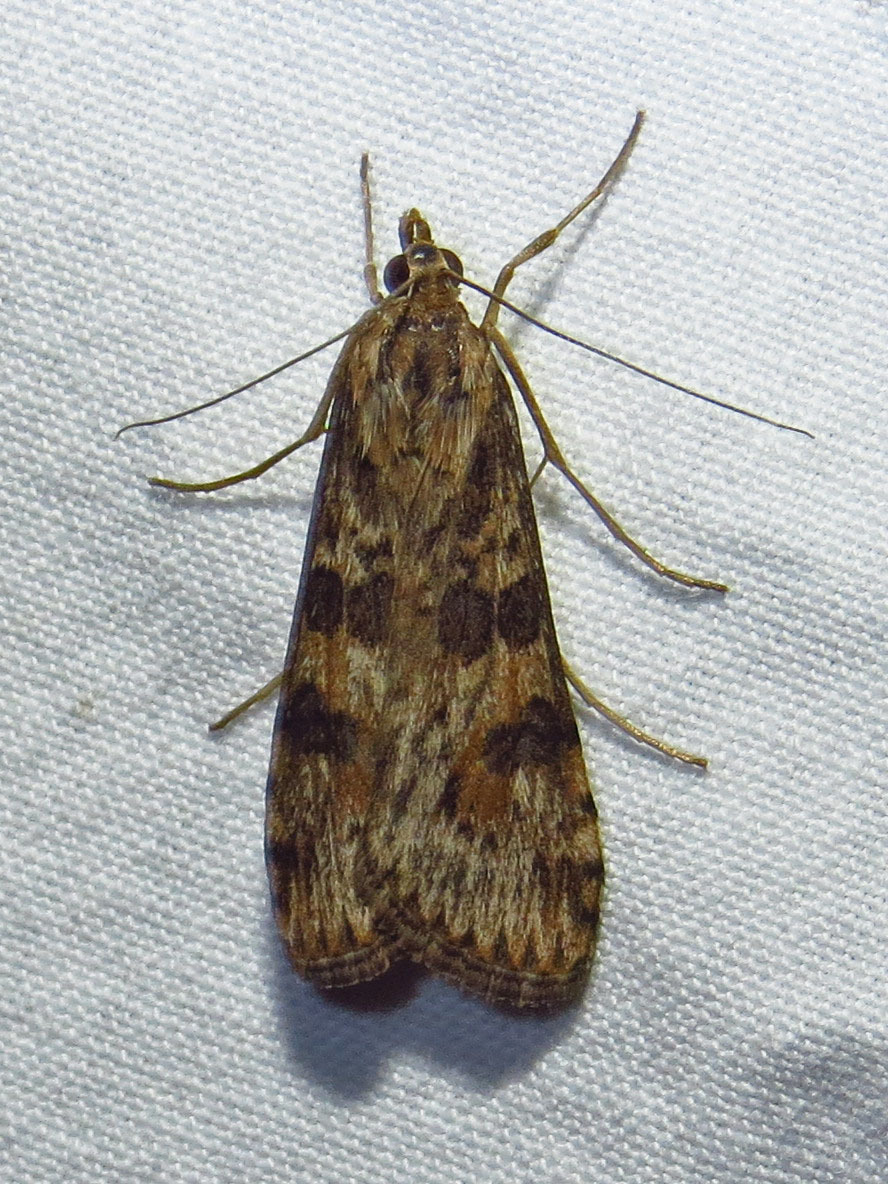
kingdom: Animalia
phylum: Arthropoda
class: Insecta
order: Lepidoptera
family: Crambidae
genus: Nomophila
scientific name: Nomophila nearctica
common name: American rush veneer
